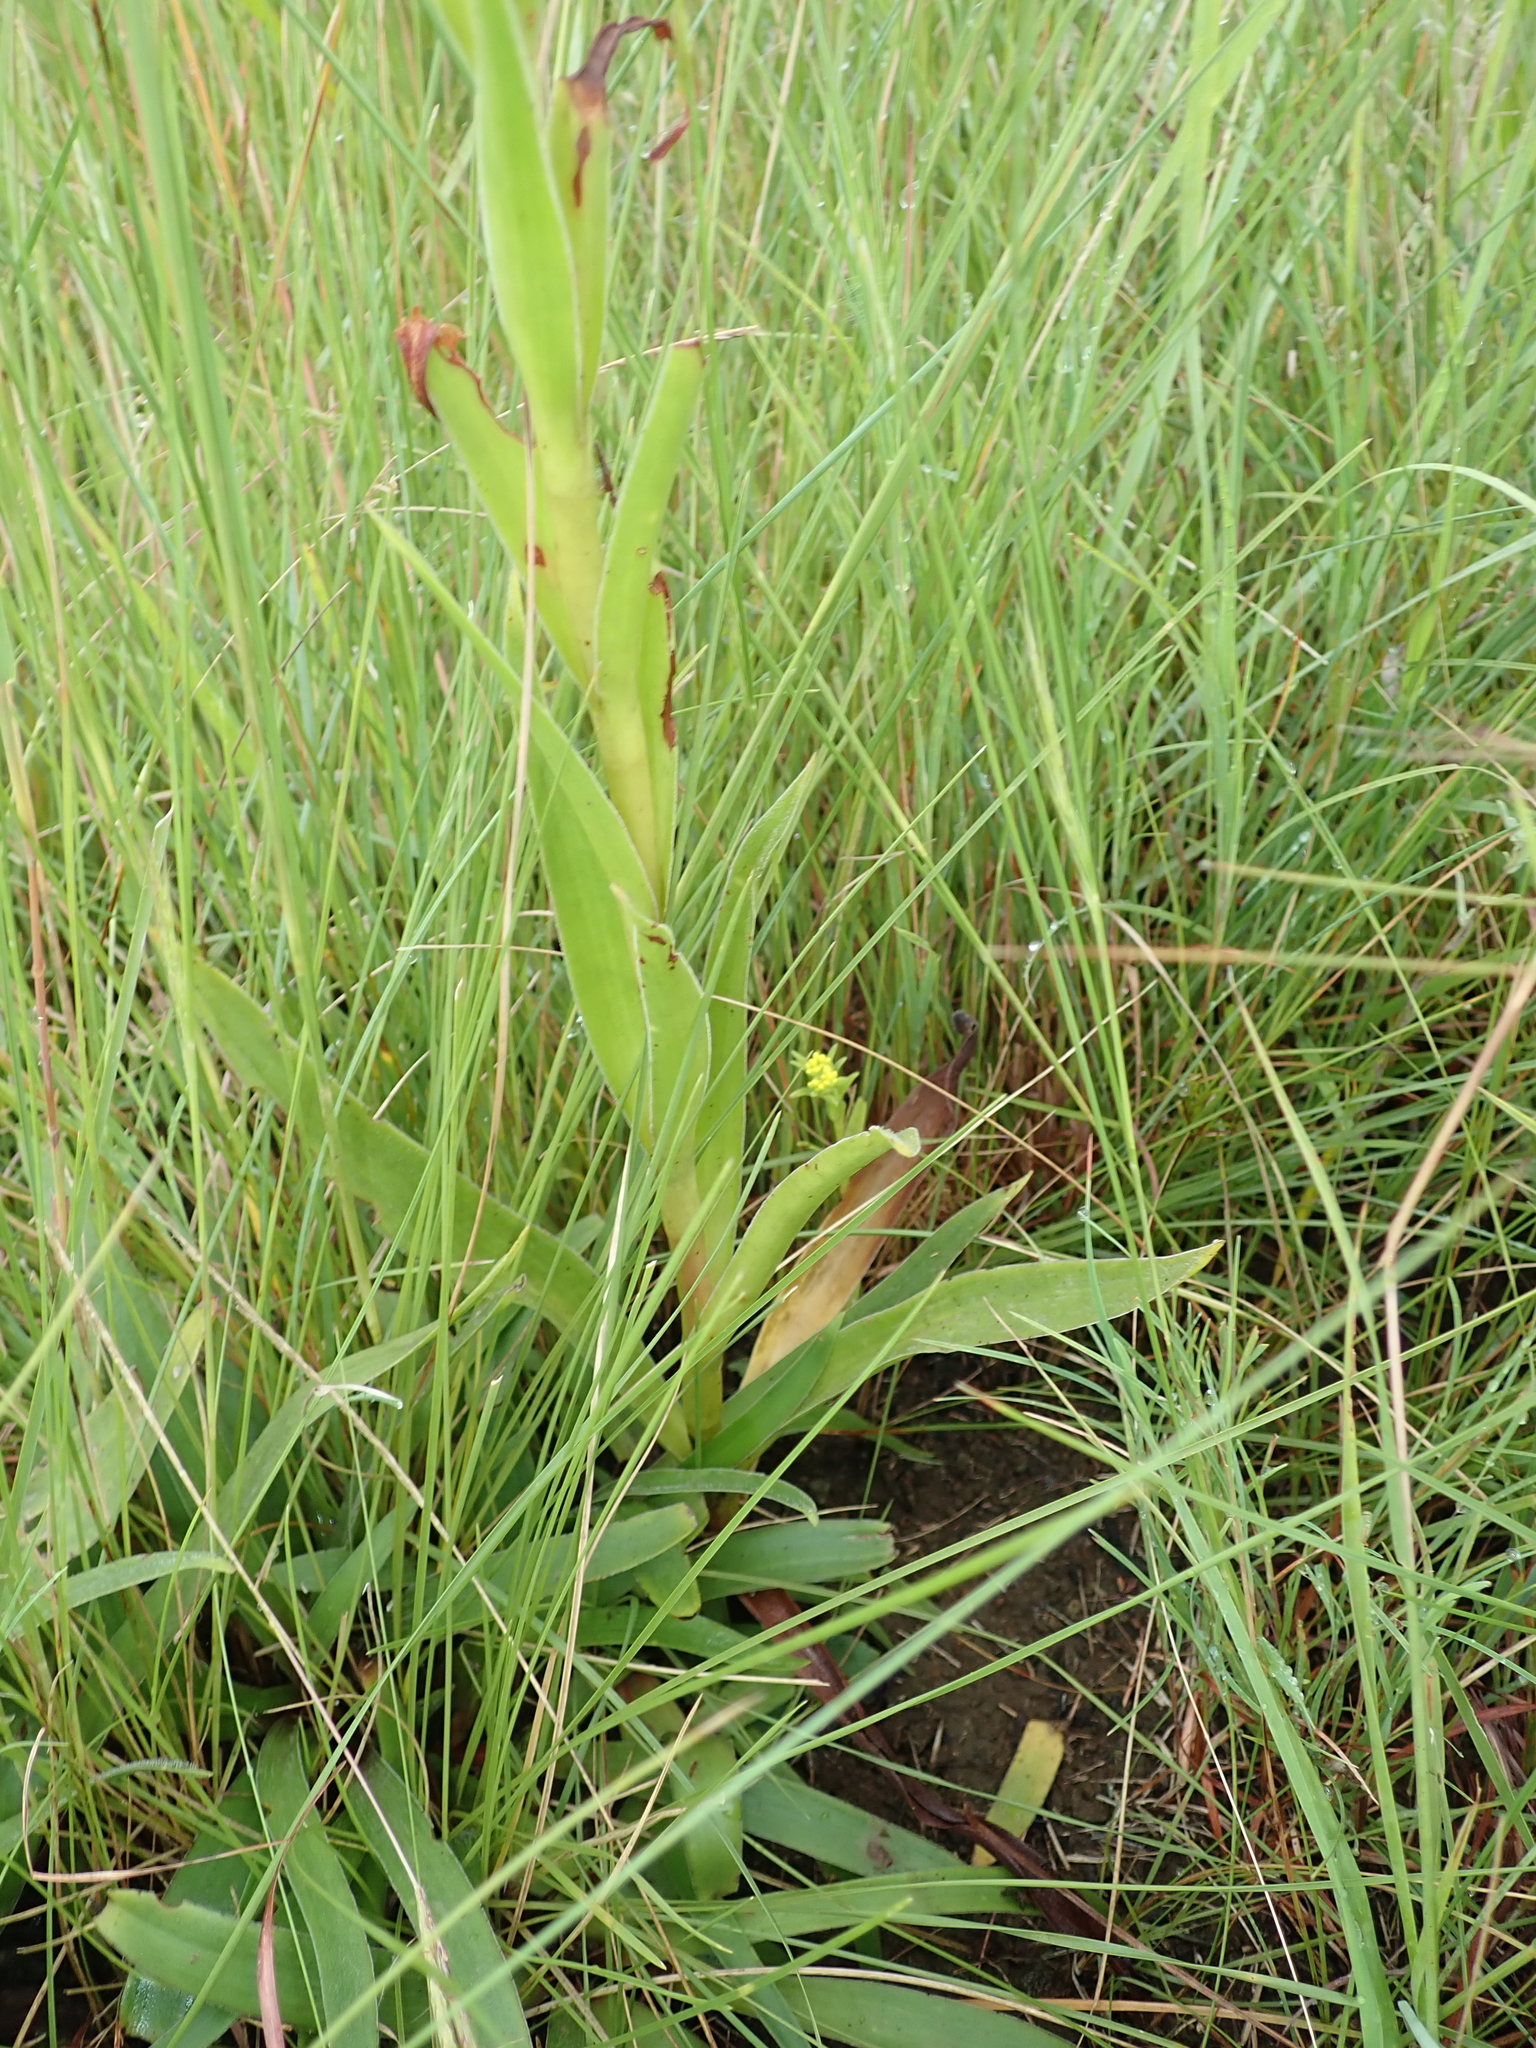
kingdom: Plantae
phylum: Tracheophyta
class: Magnoliopsida
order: Saxifragales
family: Crassulaceae
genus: Crassula
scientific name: Crassula vaginata
